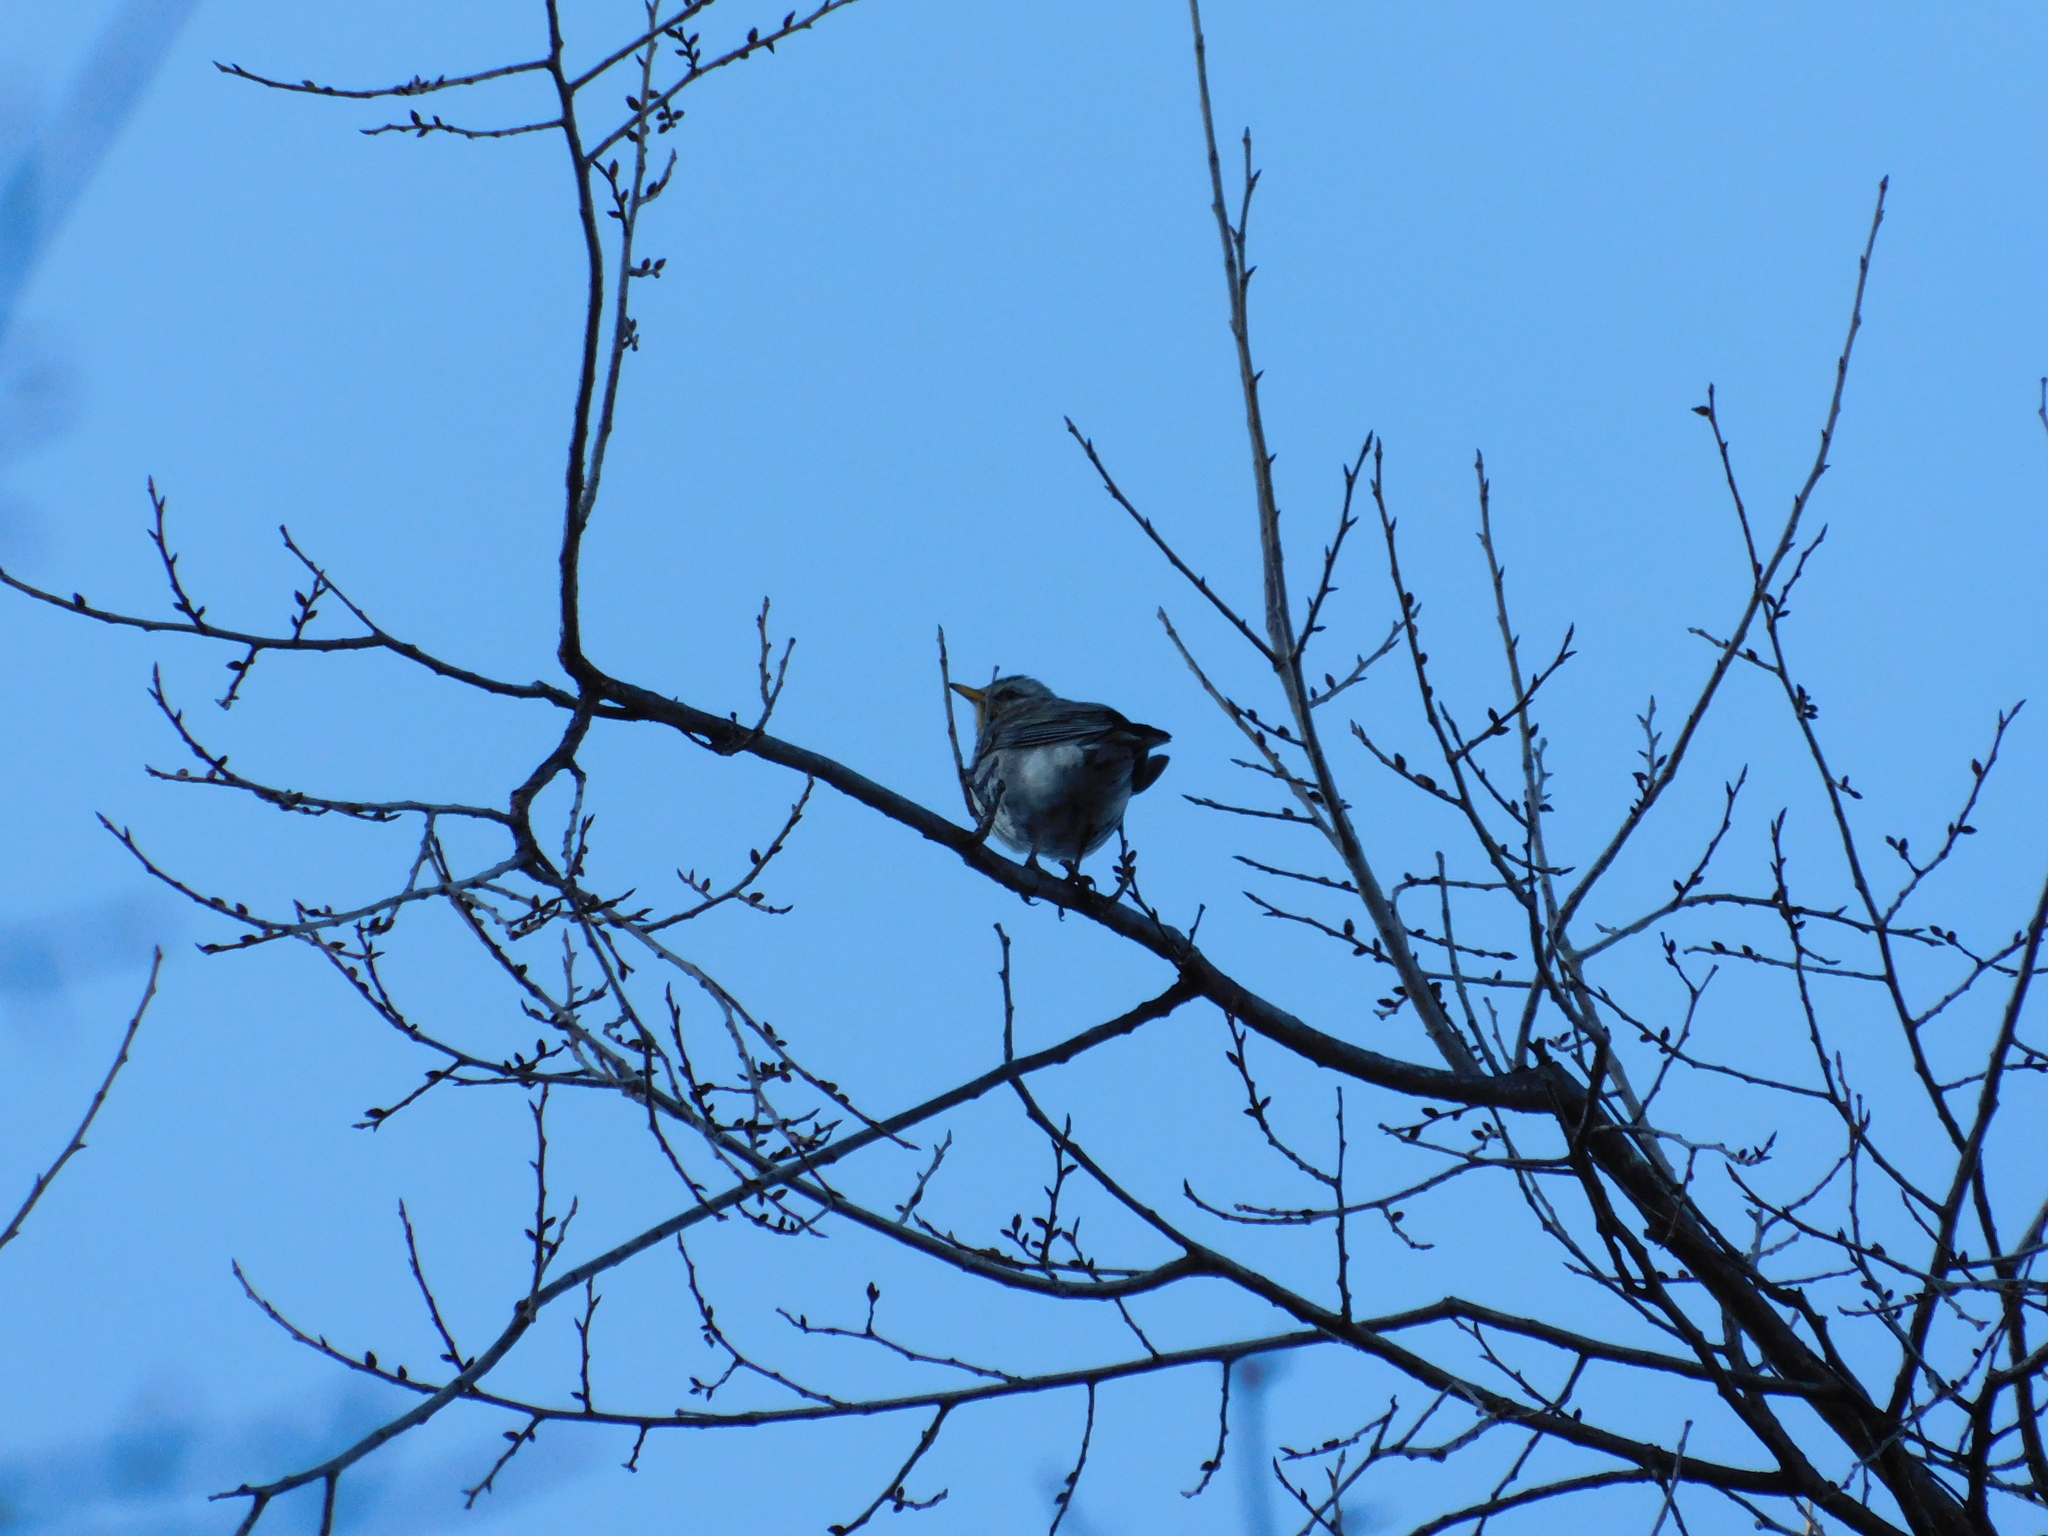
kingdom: Animalia
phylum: Chordata
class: Aves
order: Passeriformes
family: Turdidae
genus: Turdus
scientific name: Turdus pilaris
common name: Fieldfare
